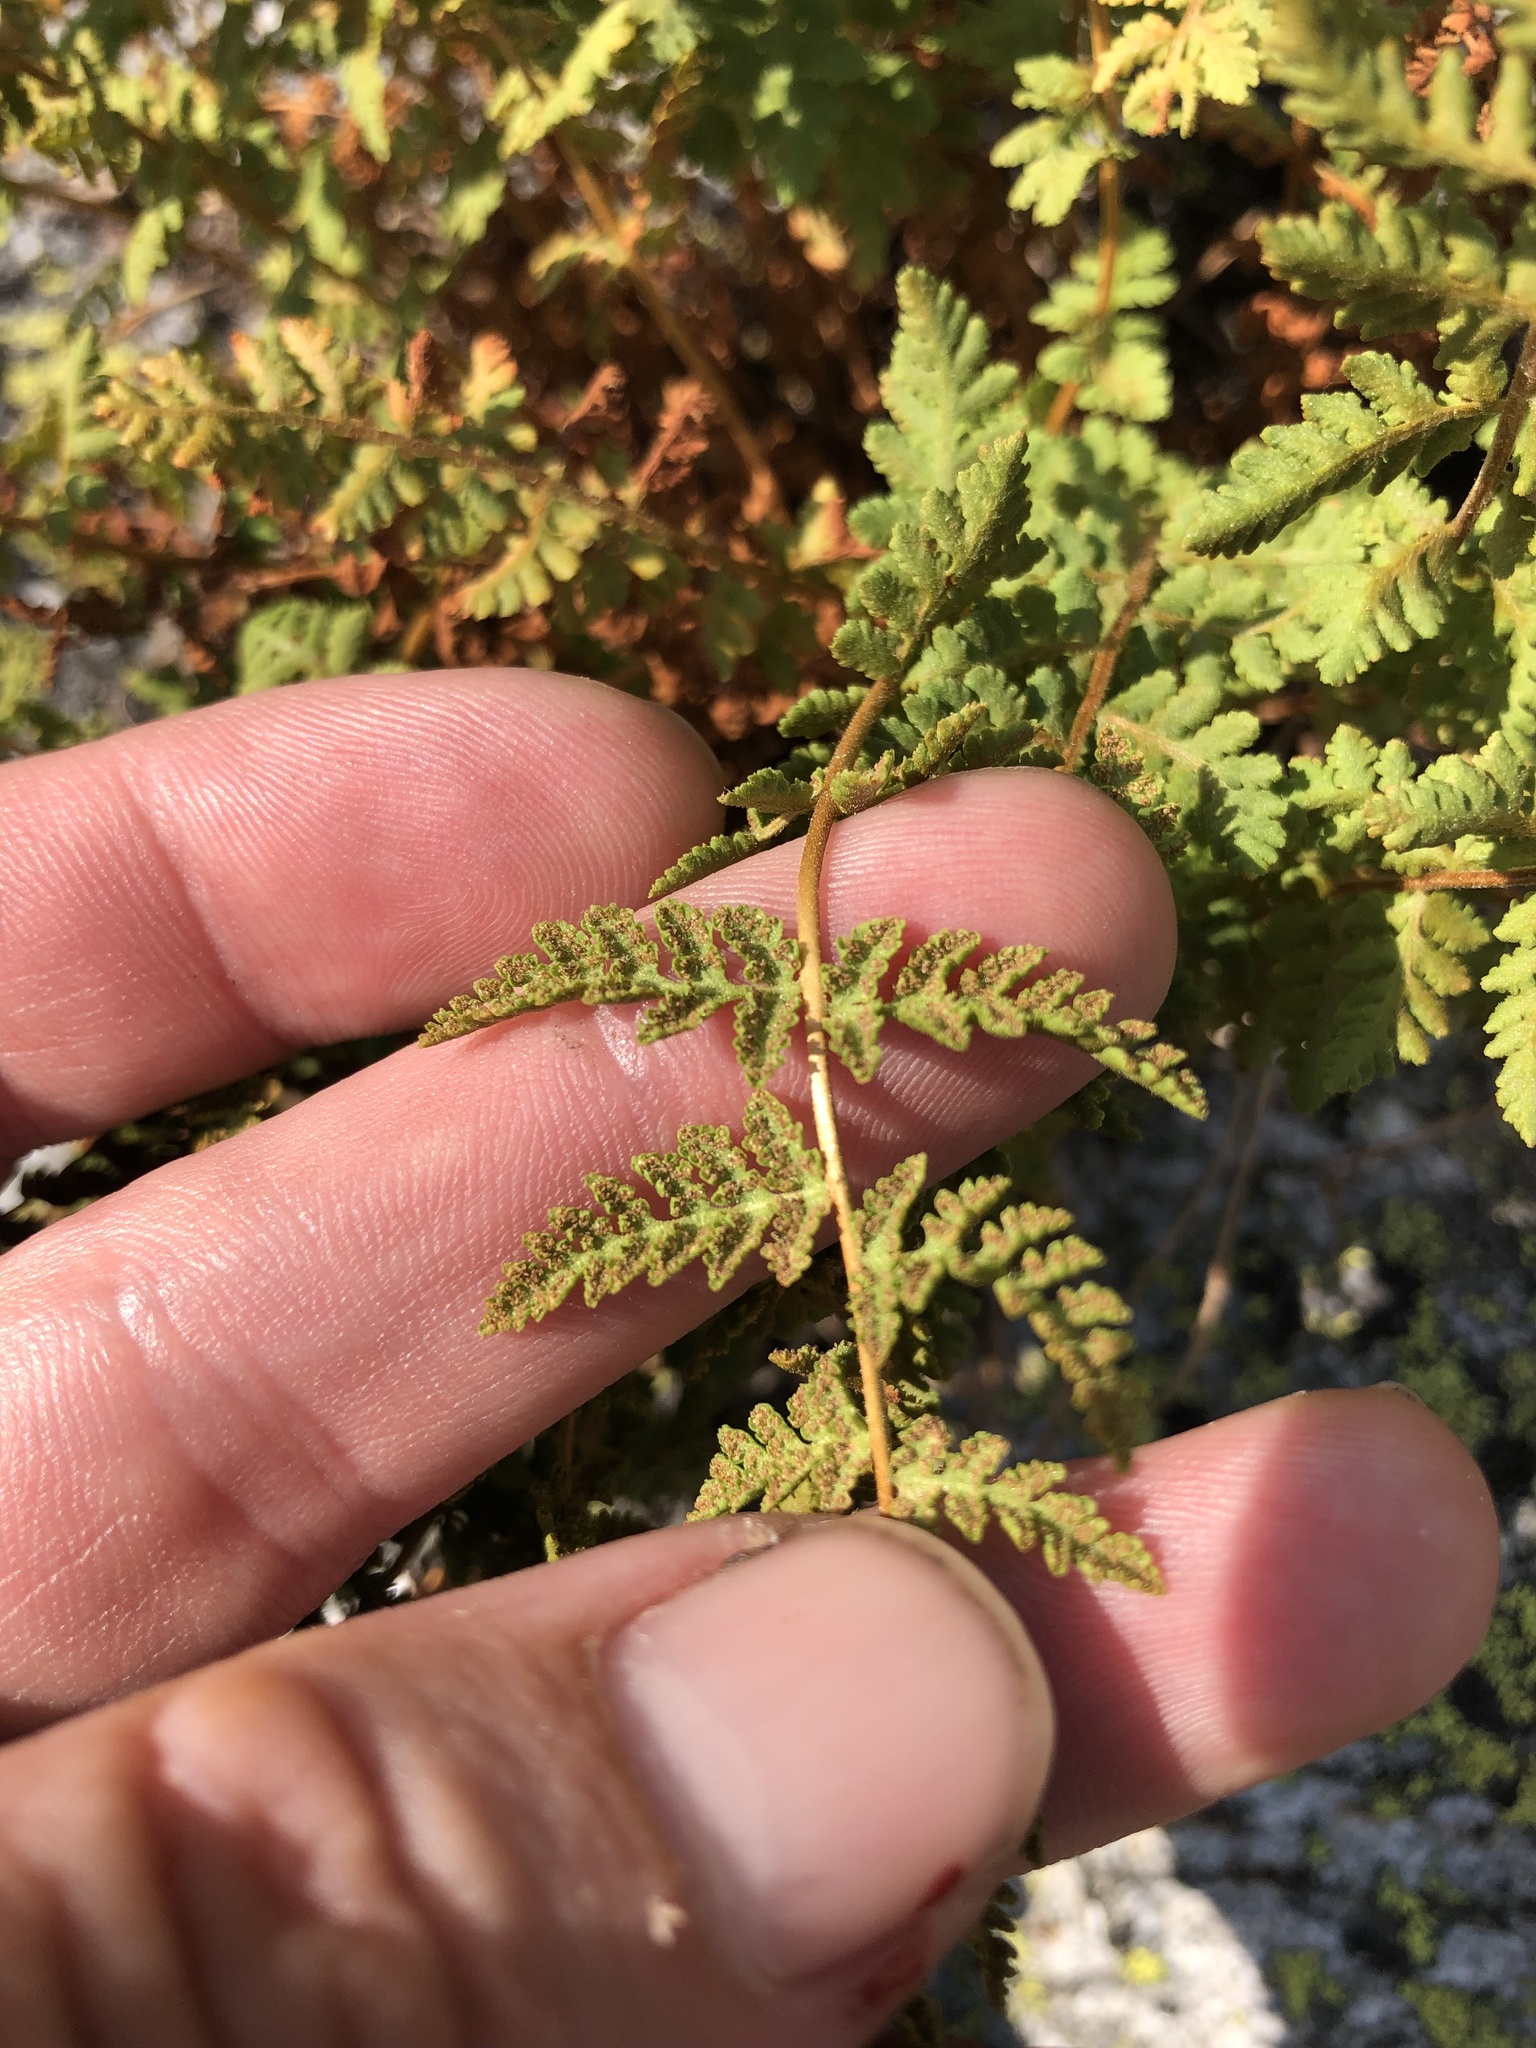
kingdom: Plantae
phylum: Tracheophyta
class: Polypodiopsida
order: Polypodiales
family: Woodsiaceae
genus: Physematium
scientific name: Physematium scopulinum
